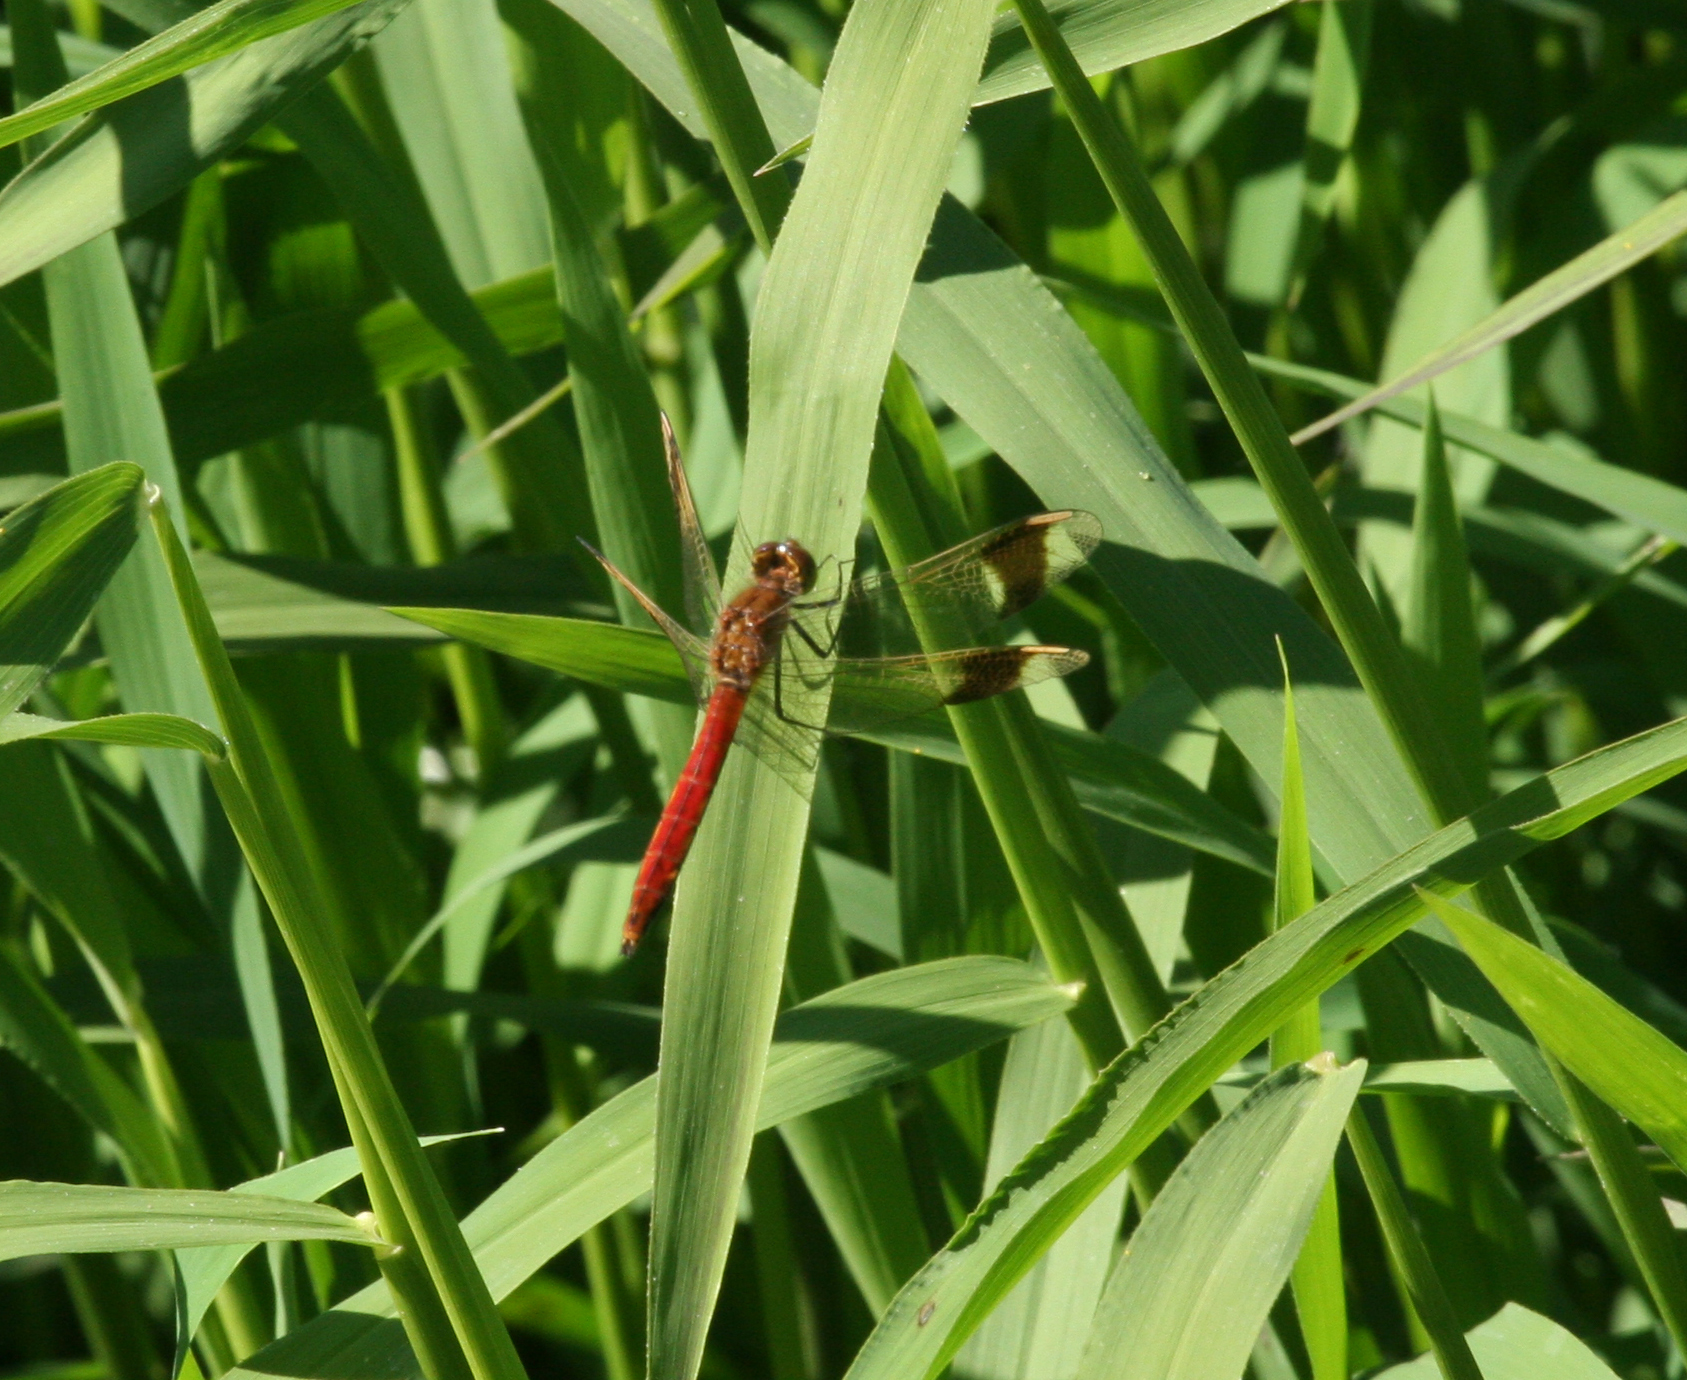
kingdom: Animalia
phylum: Arthropoda
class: Insecta
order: Odonata
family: Libellulidae
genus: Sympetrum
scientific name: Sympetrum pedemontanum
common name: Banded darter
